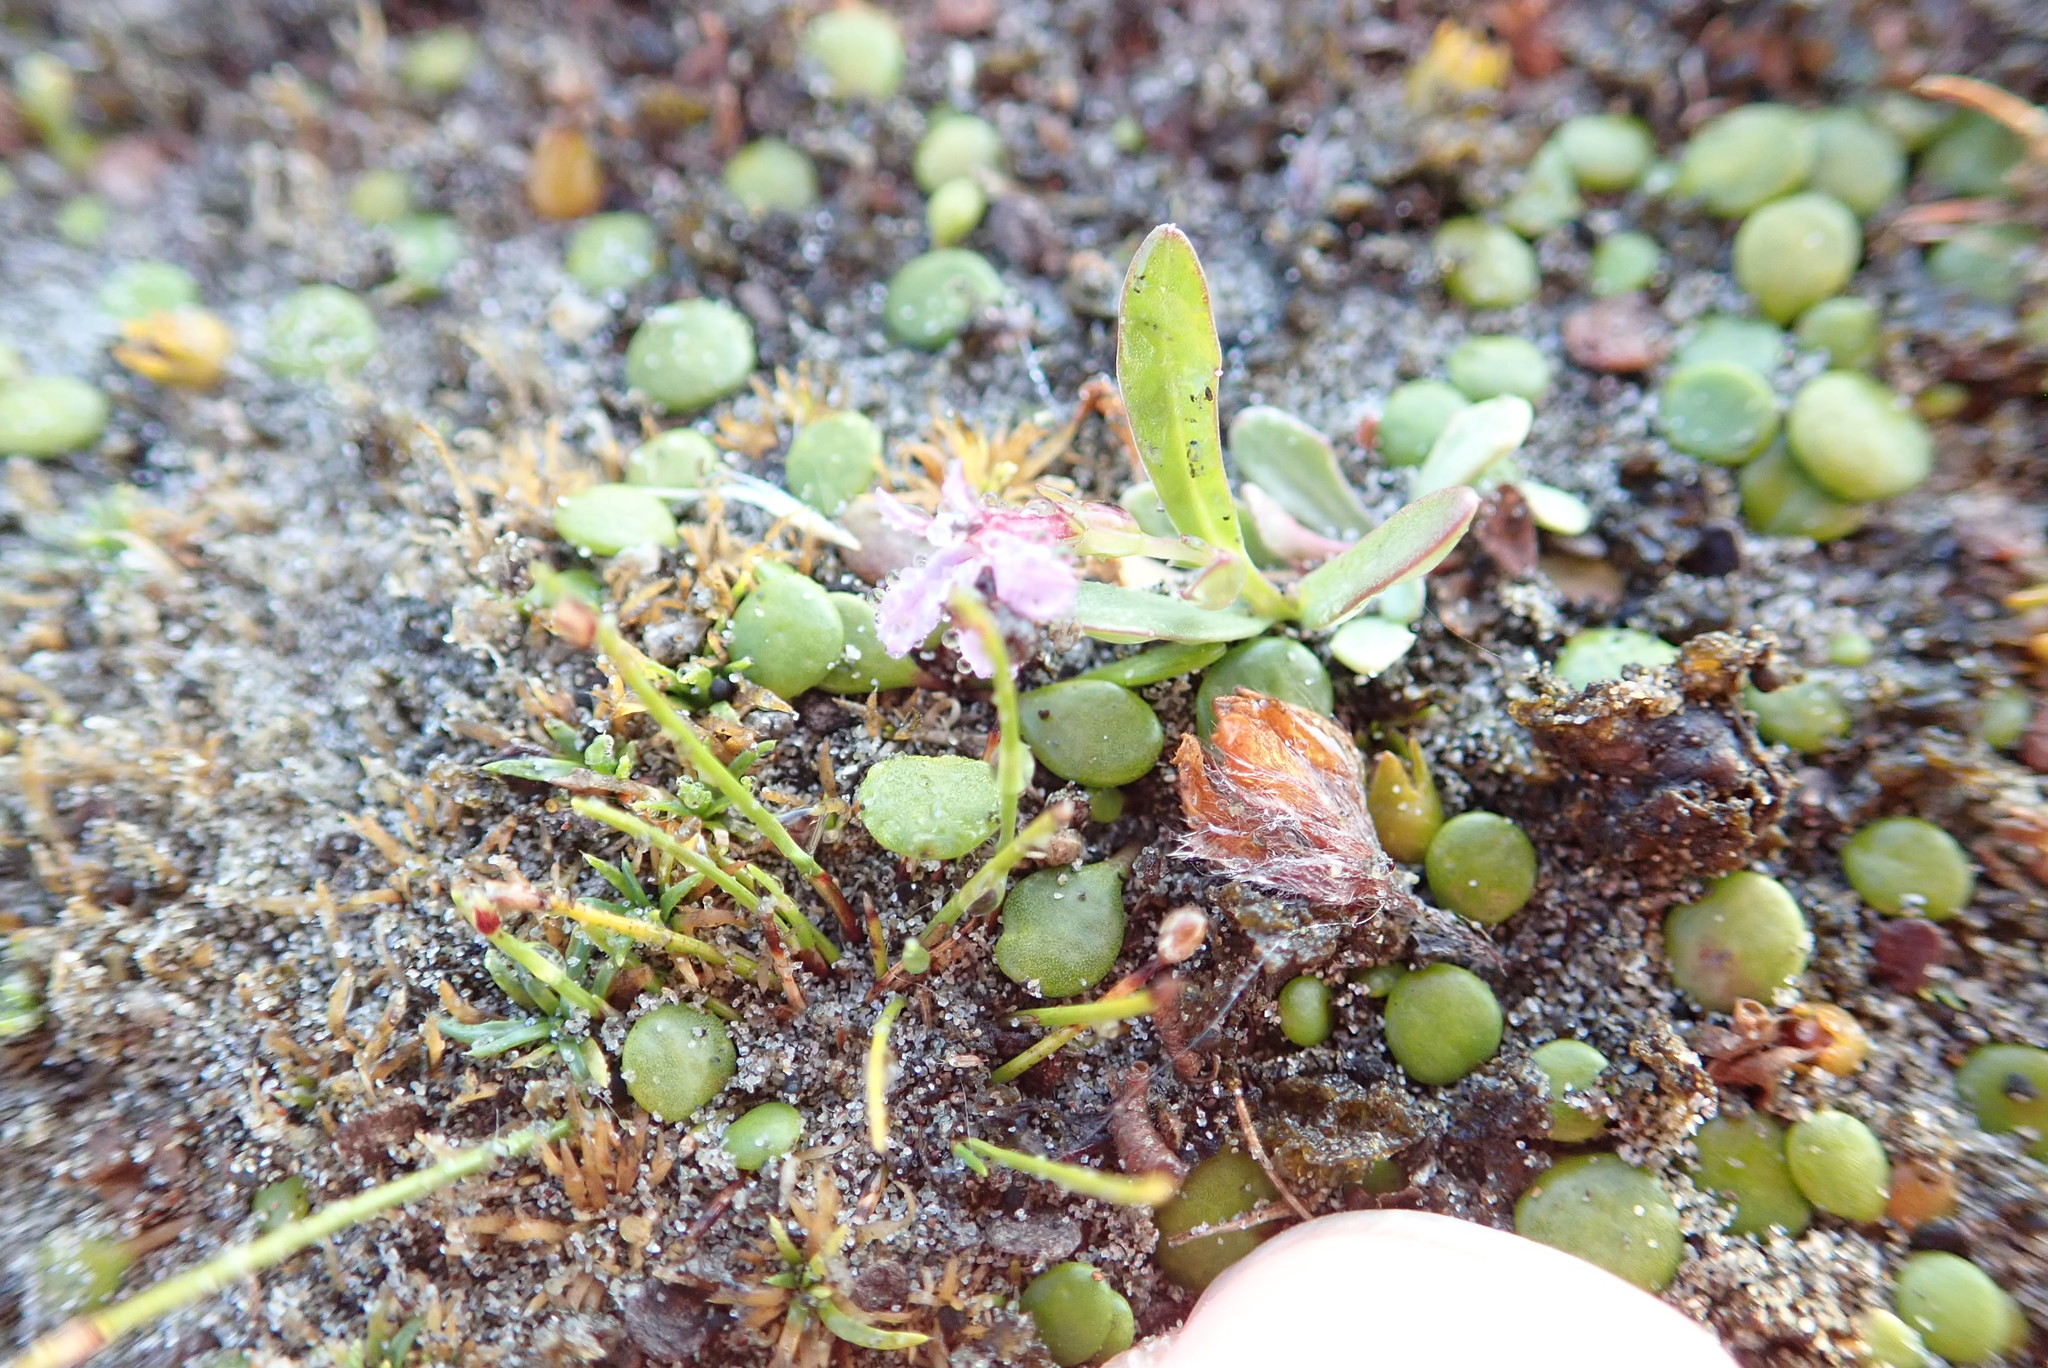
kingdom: Plantae
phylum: Tracheophyta
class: Magnoliopsida
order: Asterales
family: Campanulaceae
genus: Lobelia
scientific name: Lobelia anceps
